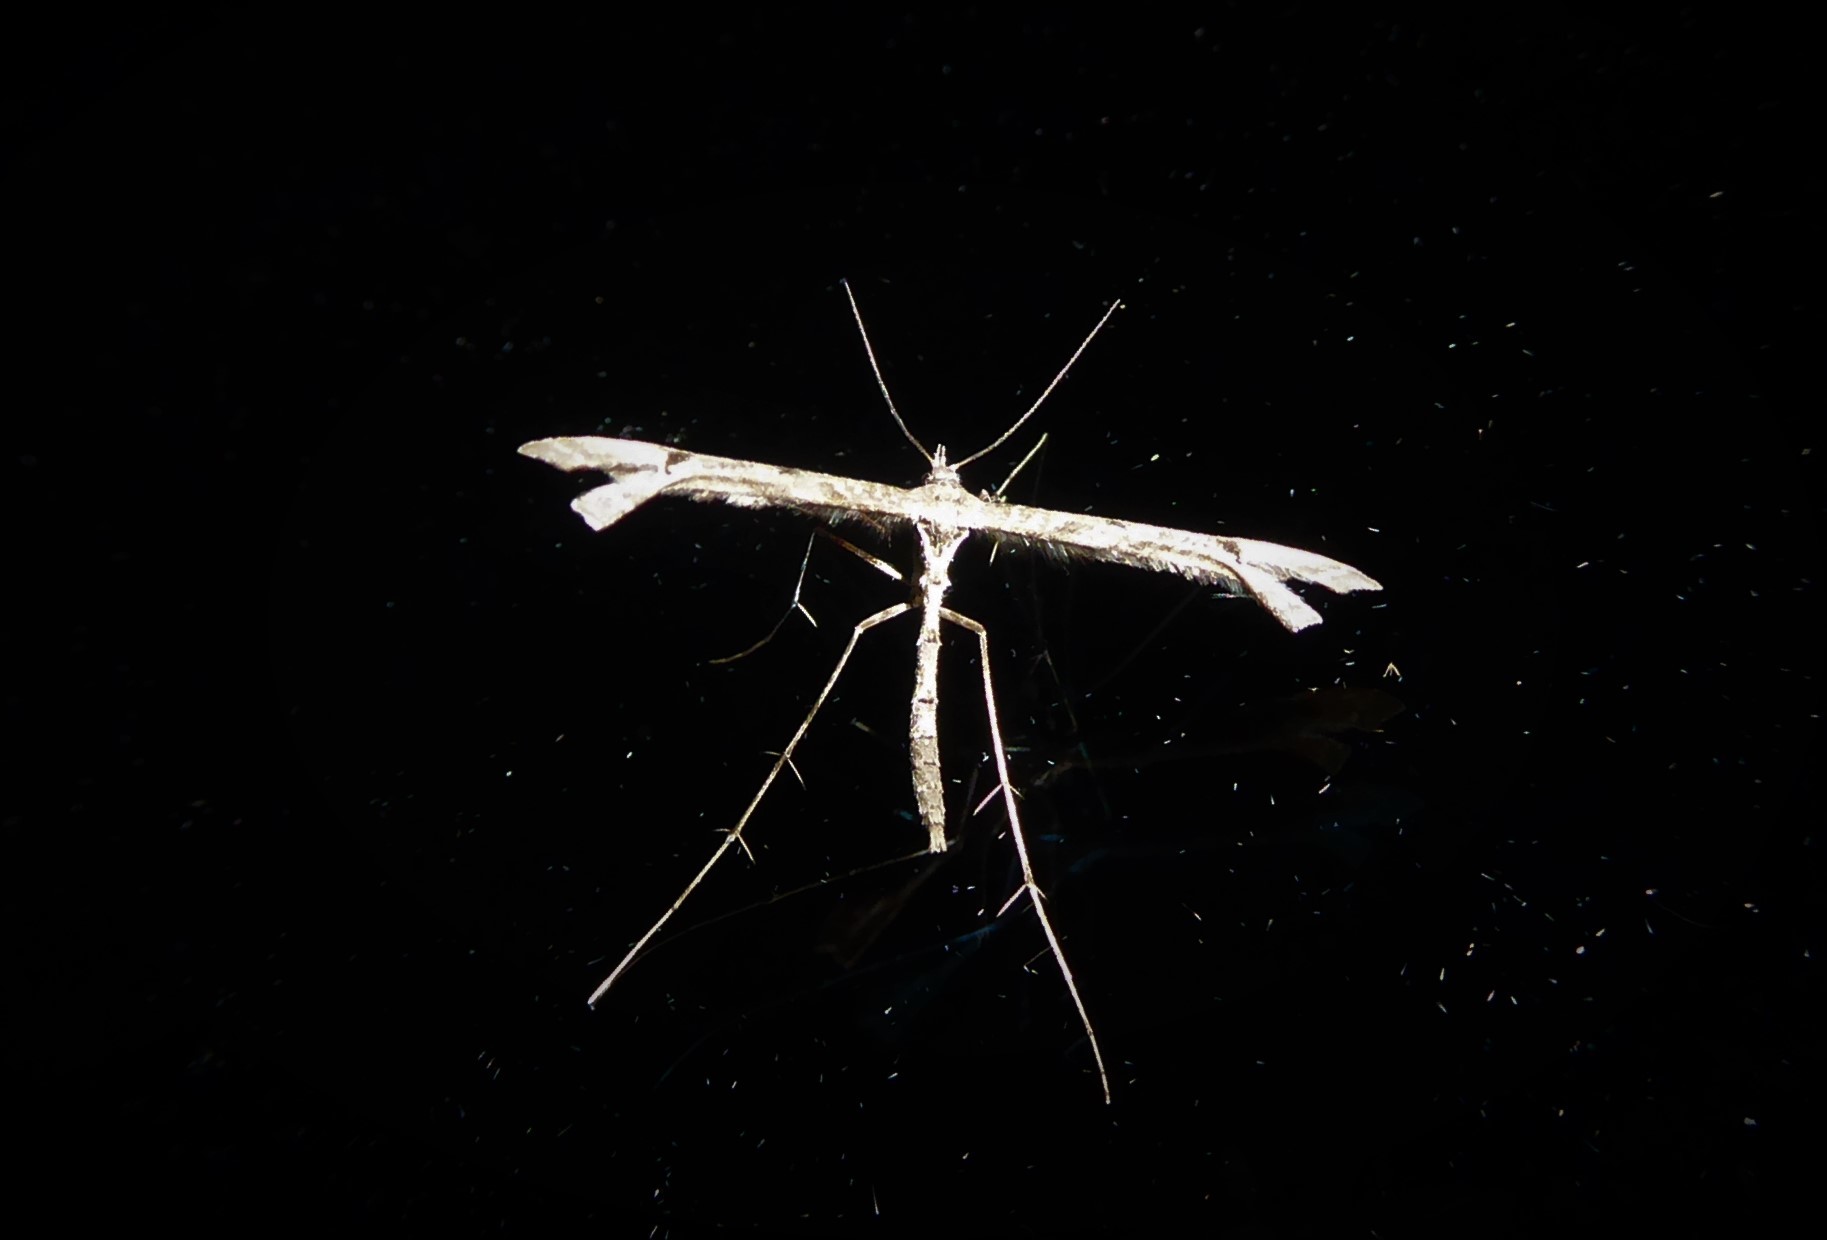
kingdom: Animalia
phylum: Arthropoda
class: Insecta
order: Lepidoptera
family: Pterophoridae
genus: Amblyptilia
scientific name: Amblyptilia repletalis
